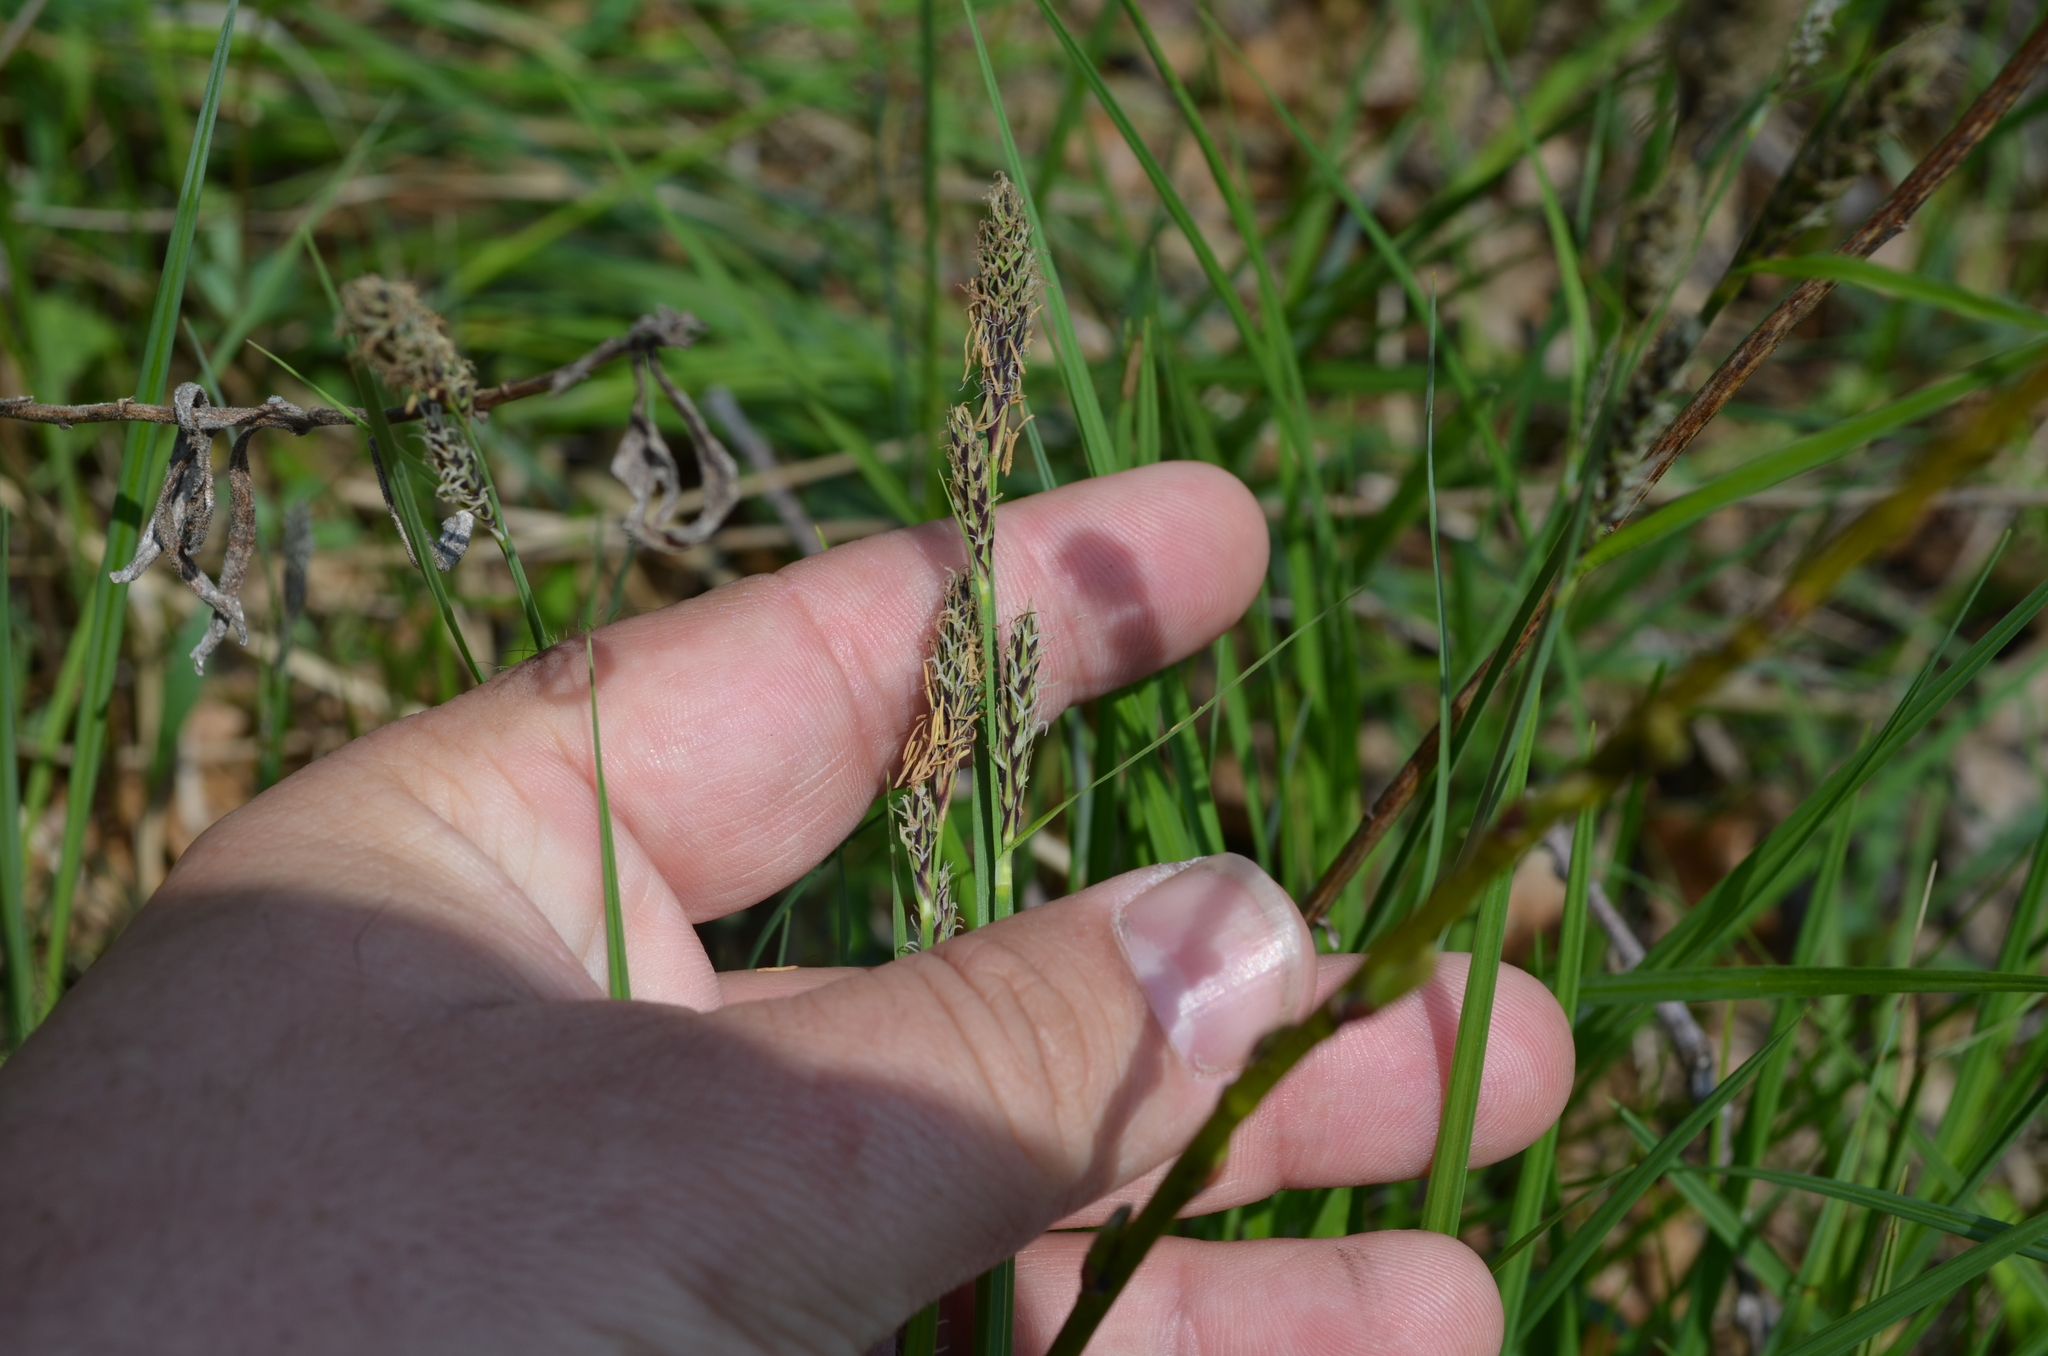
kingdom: Plantae
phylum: Tracheophyta
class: Liliopsida
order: Poales
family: Cyperaceae
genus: Carex
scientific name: Carex buxbaumii
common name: Club sedge
